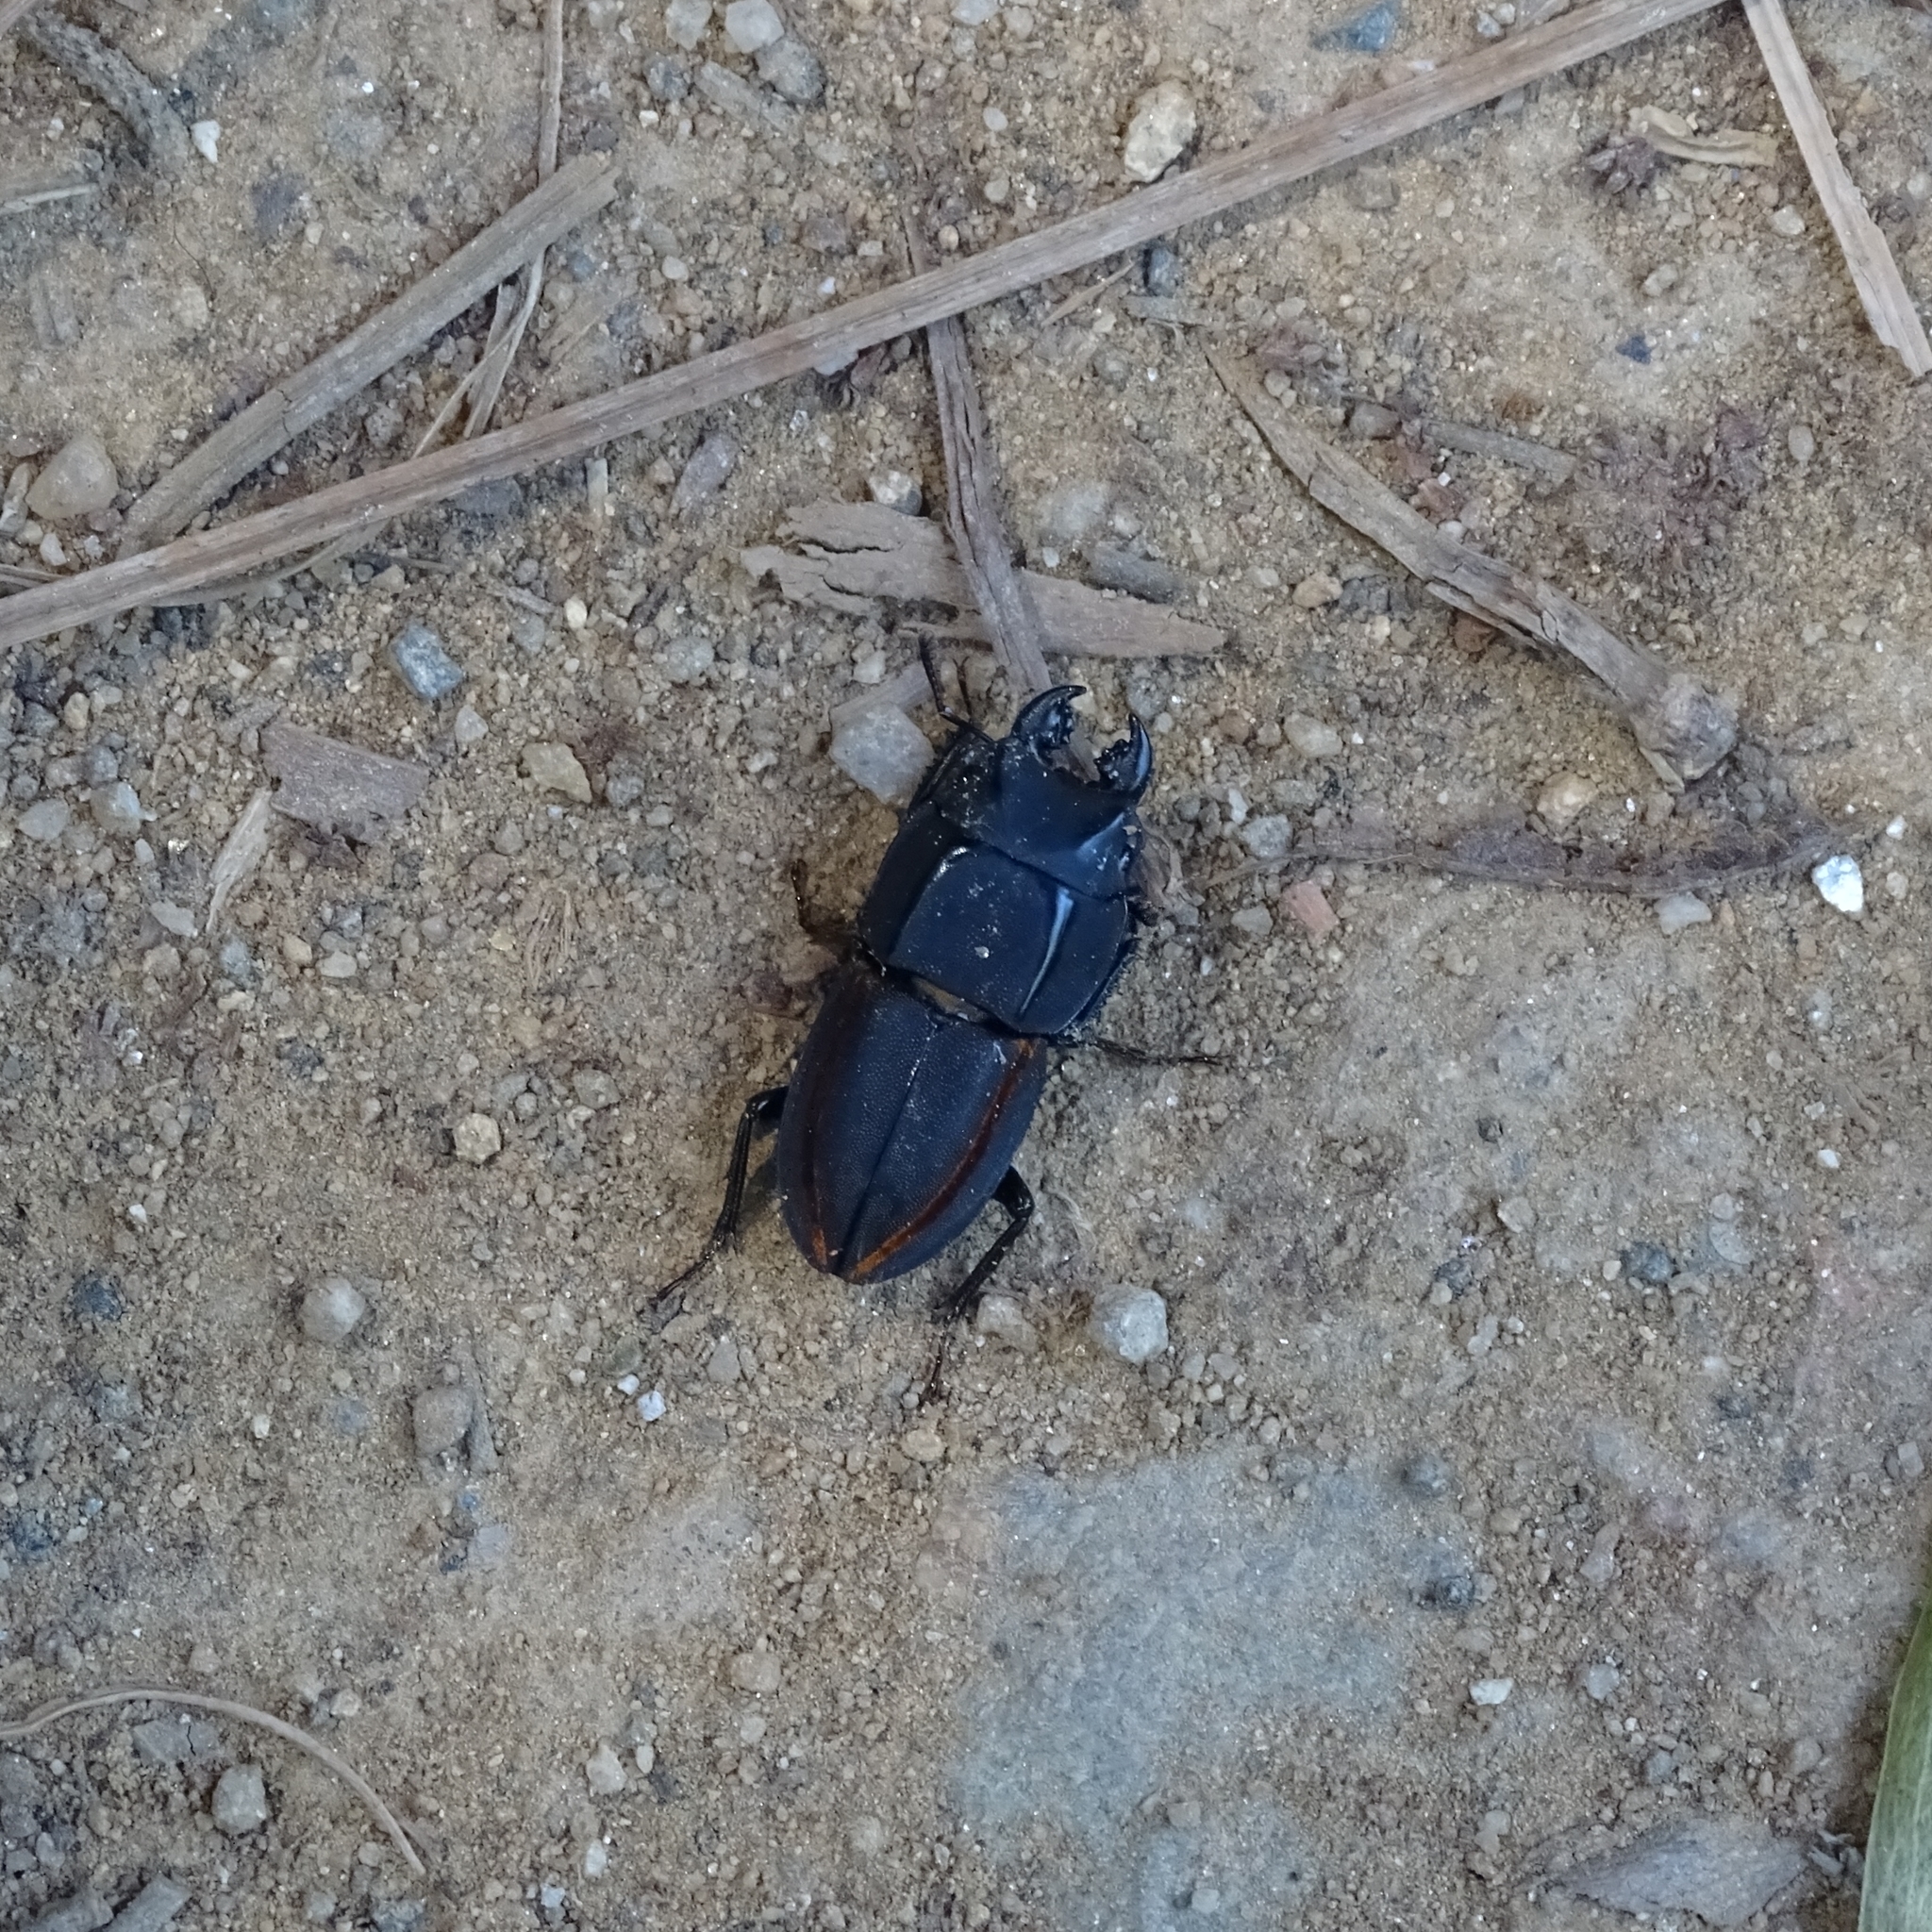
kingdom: Animalia
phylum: Arthropoda
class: Insecta
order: Coleoptera
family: Lucanidae
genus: Erichius
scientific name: Erichius vittatus
